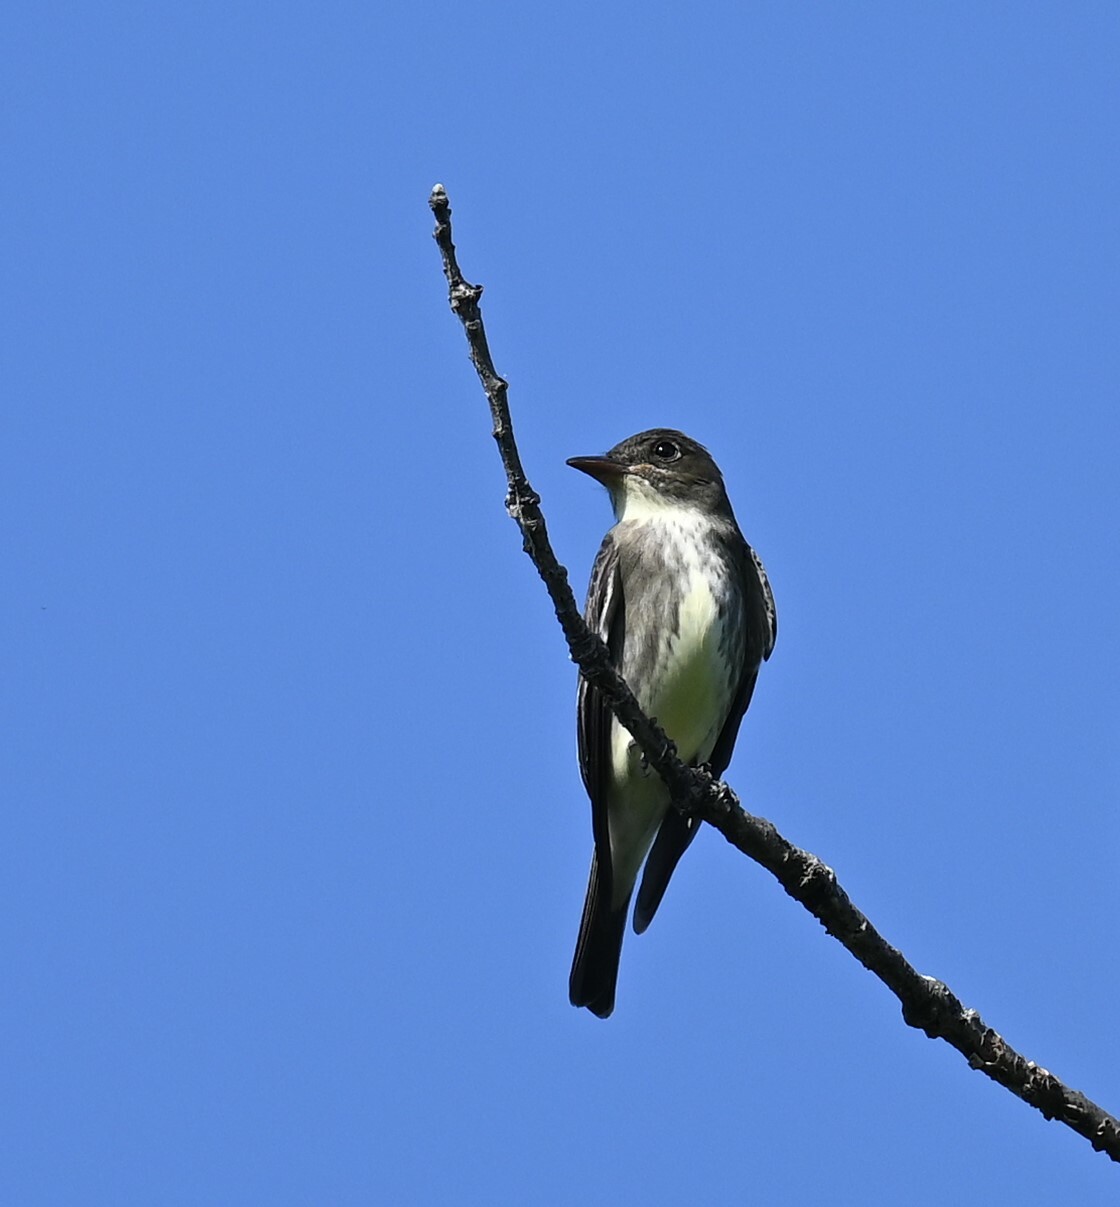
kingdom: Animalia
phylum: Chordata
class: Aves
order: Passeriformes
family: Tyrannidae
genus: Contopus
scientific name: Contopus cooperi
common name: Olive-sided flycatcher
